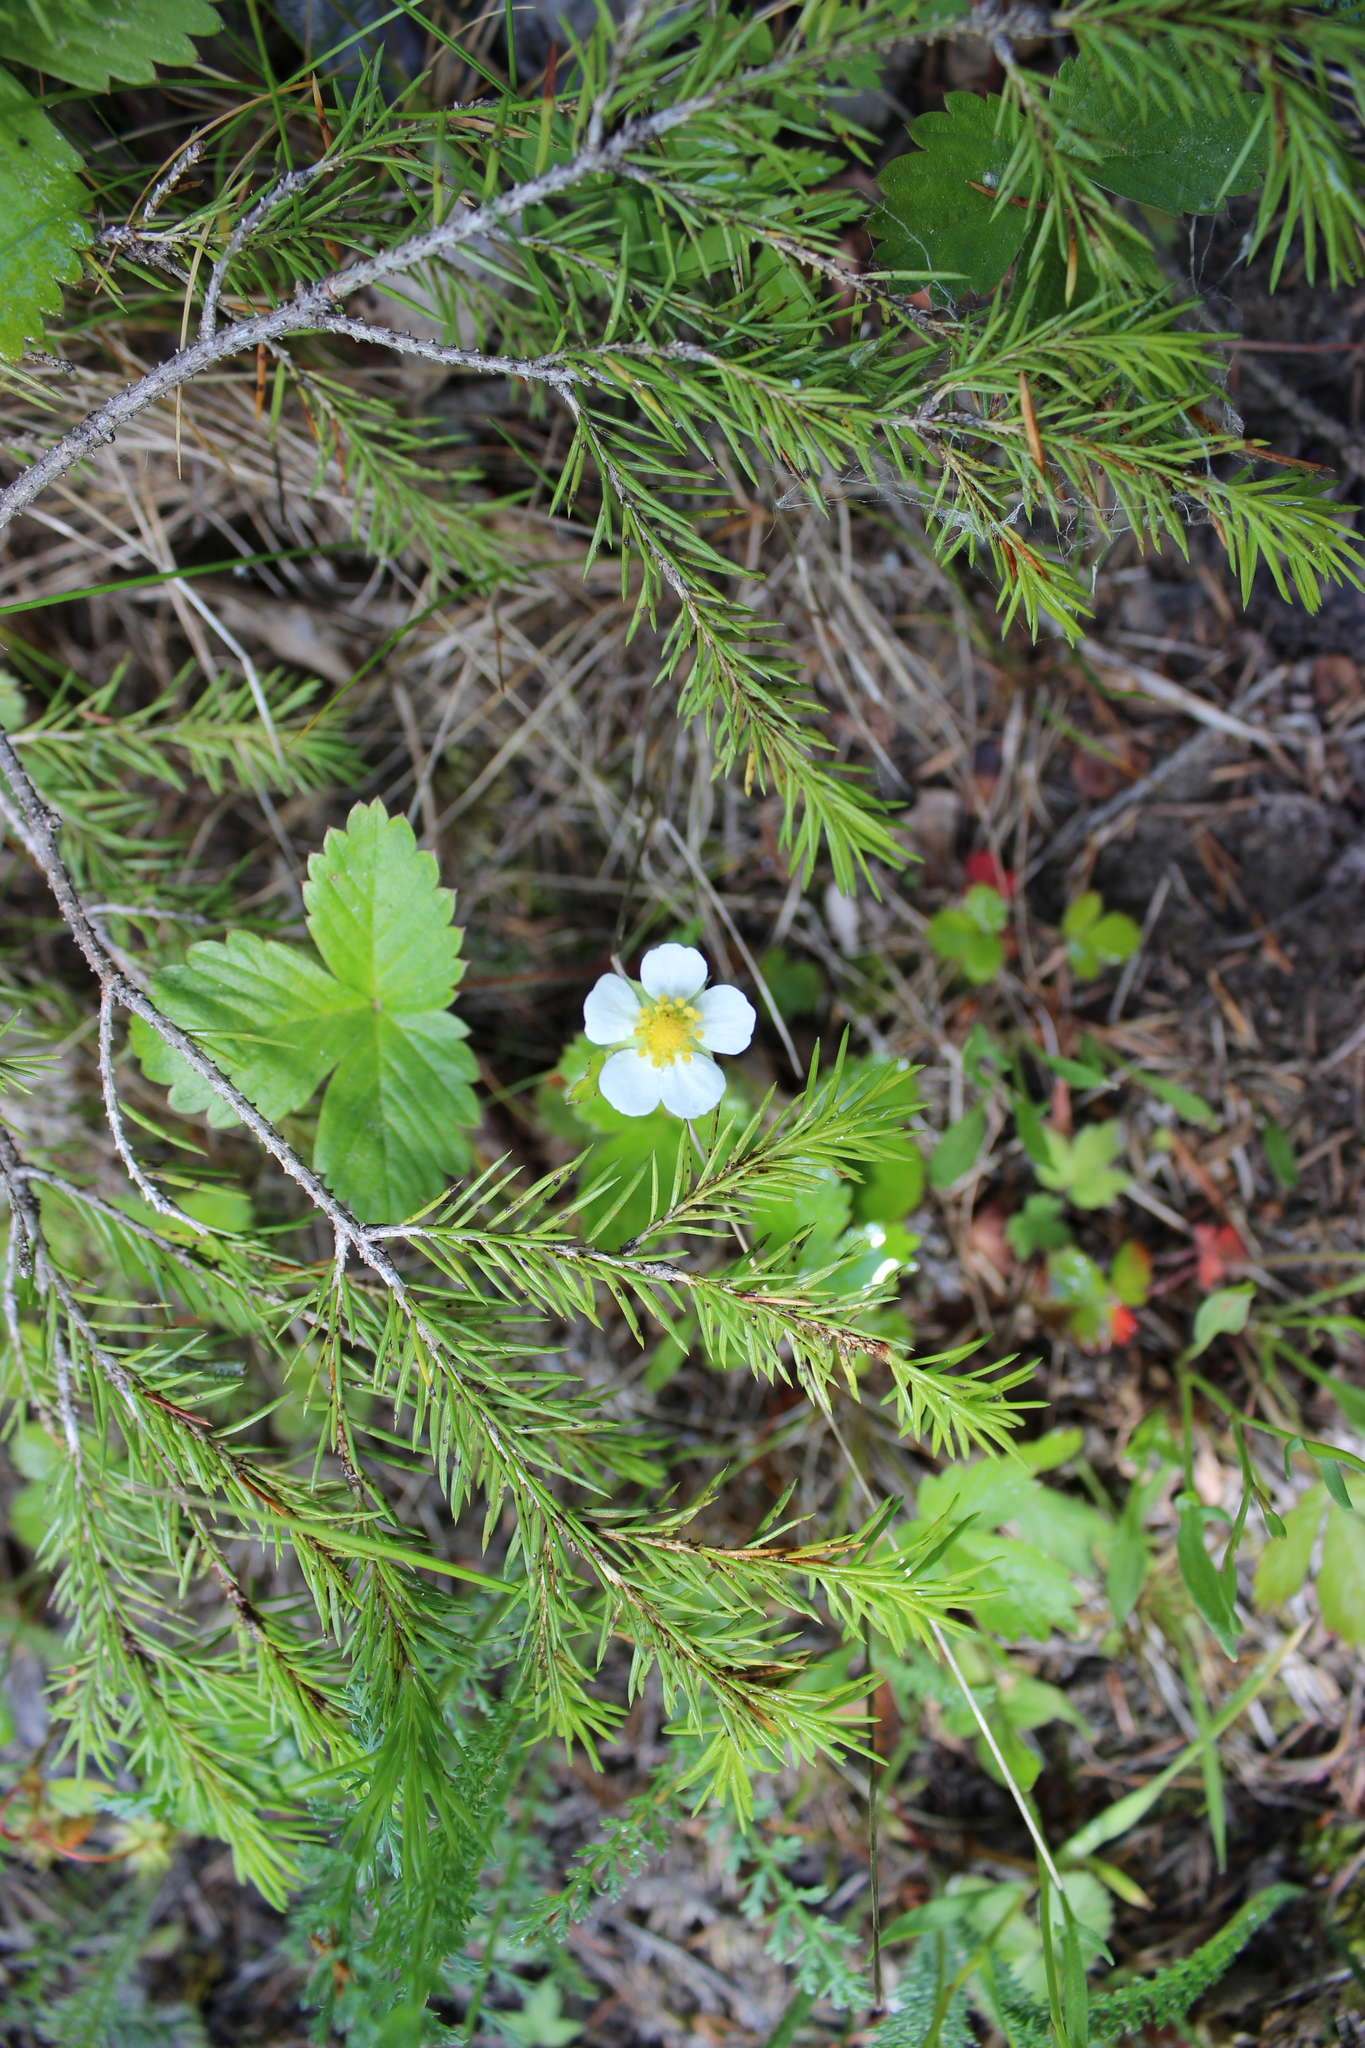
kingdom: Plantae
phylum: Tracheophyta
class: Magnoliopsida
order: Rosales
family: Rosaceae
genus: Fragaria
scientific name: Fragaria vesca
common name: Wild strawberry
